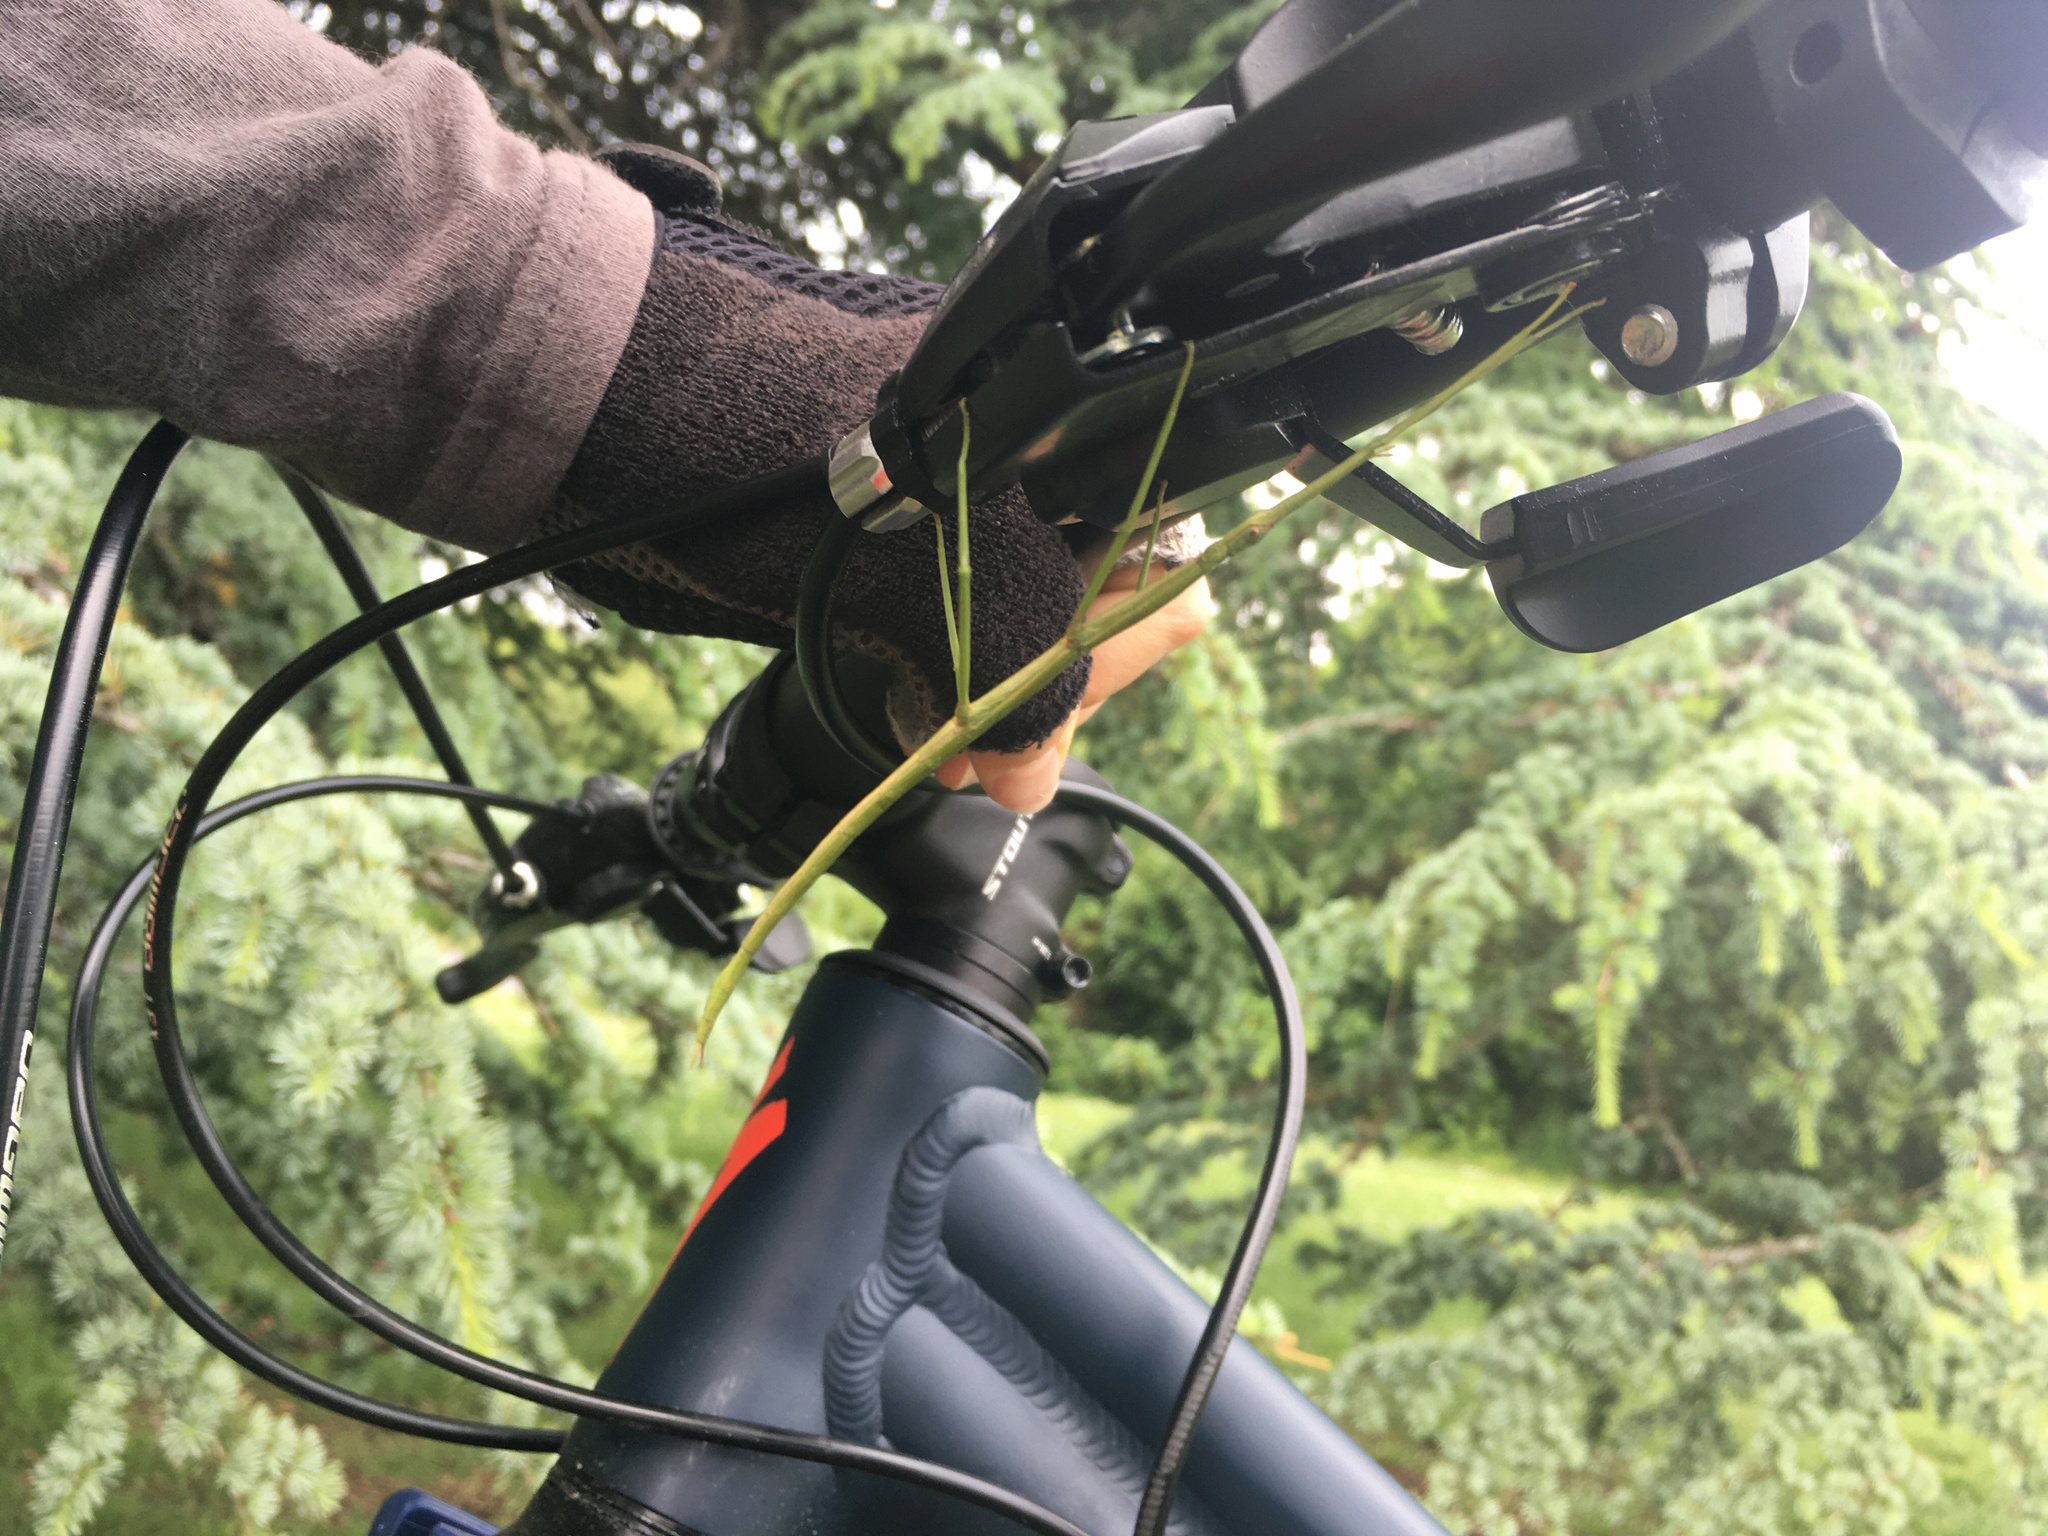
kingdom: Animalia
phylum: Arthropoda
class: Insecta
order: Phasmida
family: Phasmatidae
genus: Clitarchus
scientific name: Clitarchus hookeri
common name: Smooth stick insect
